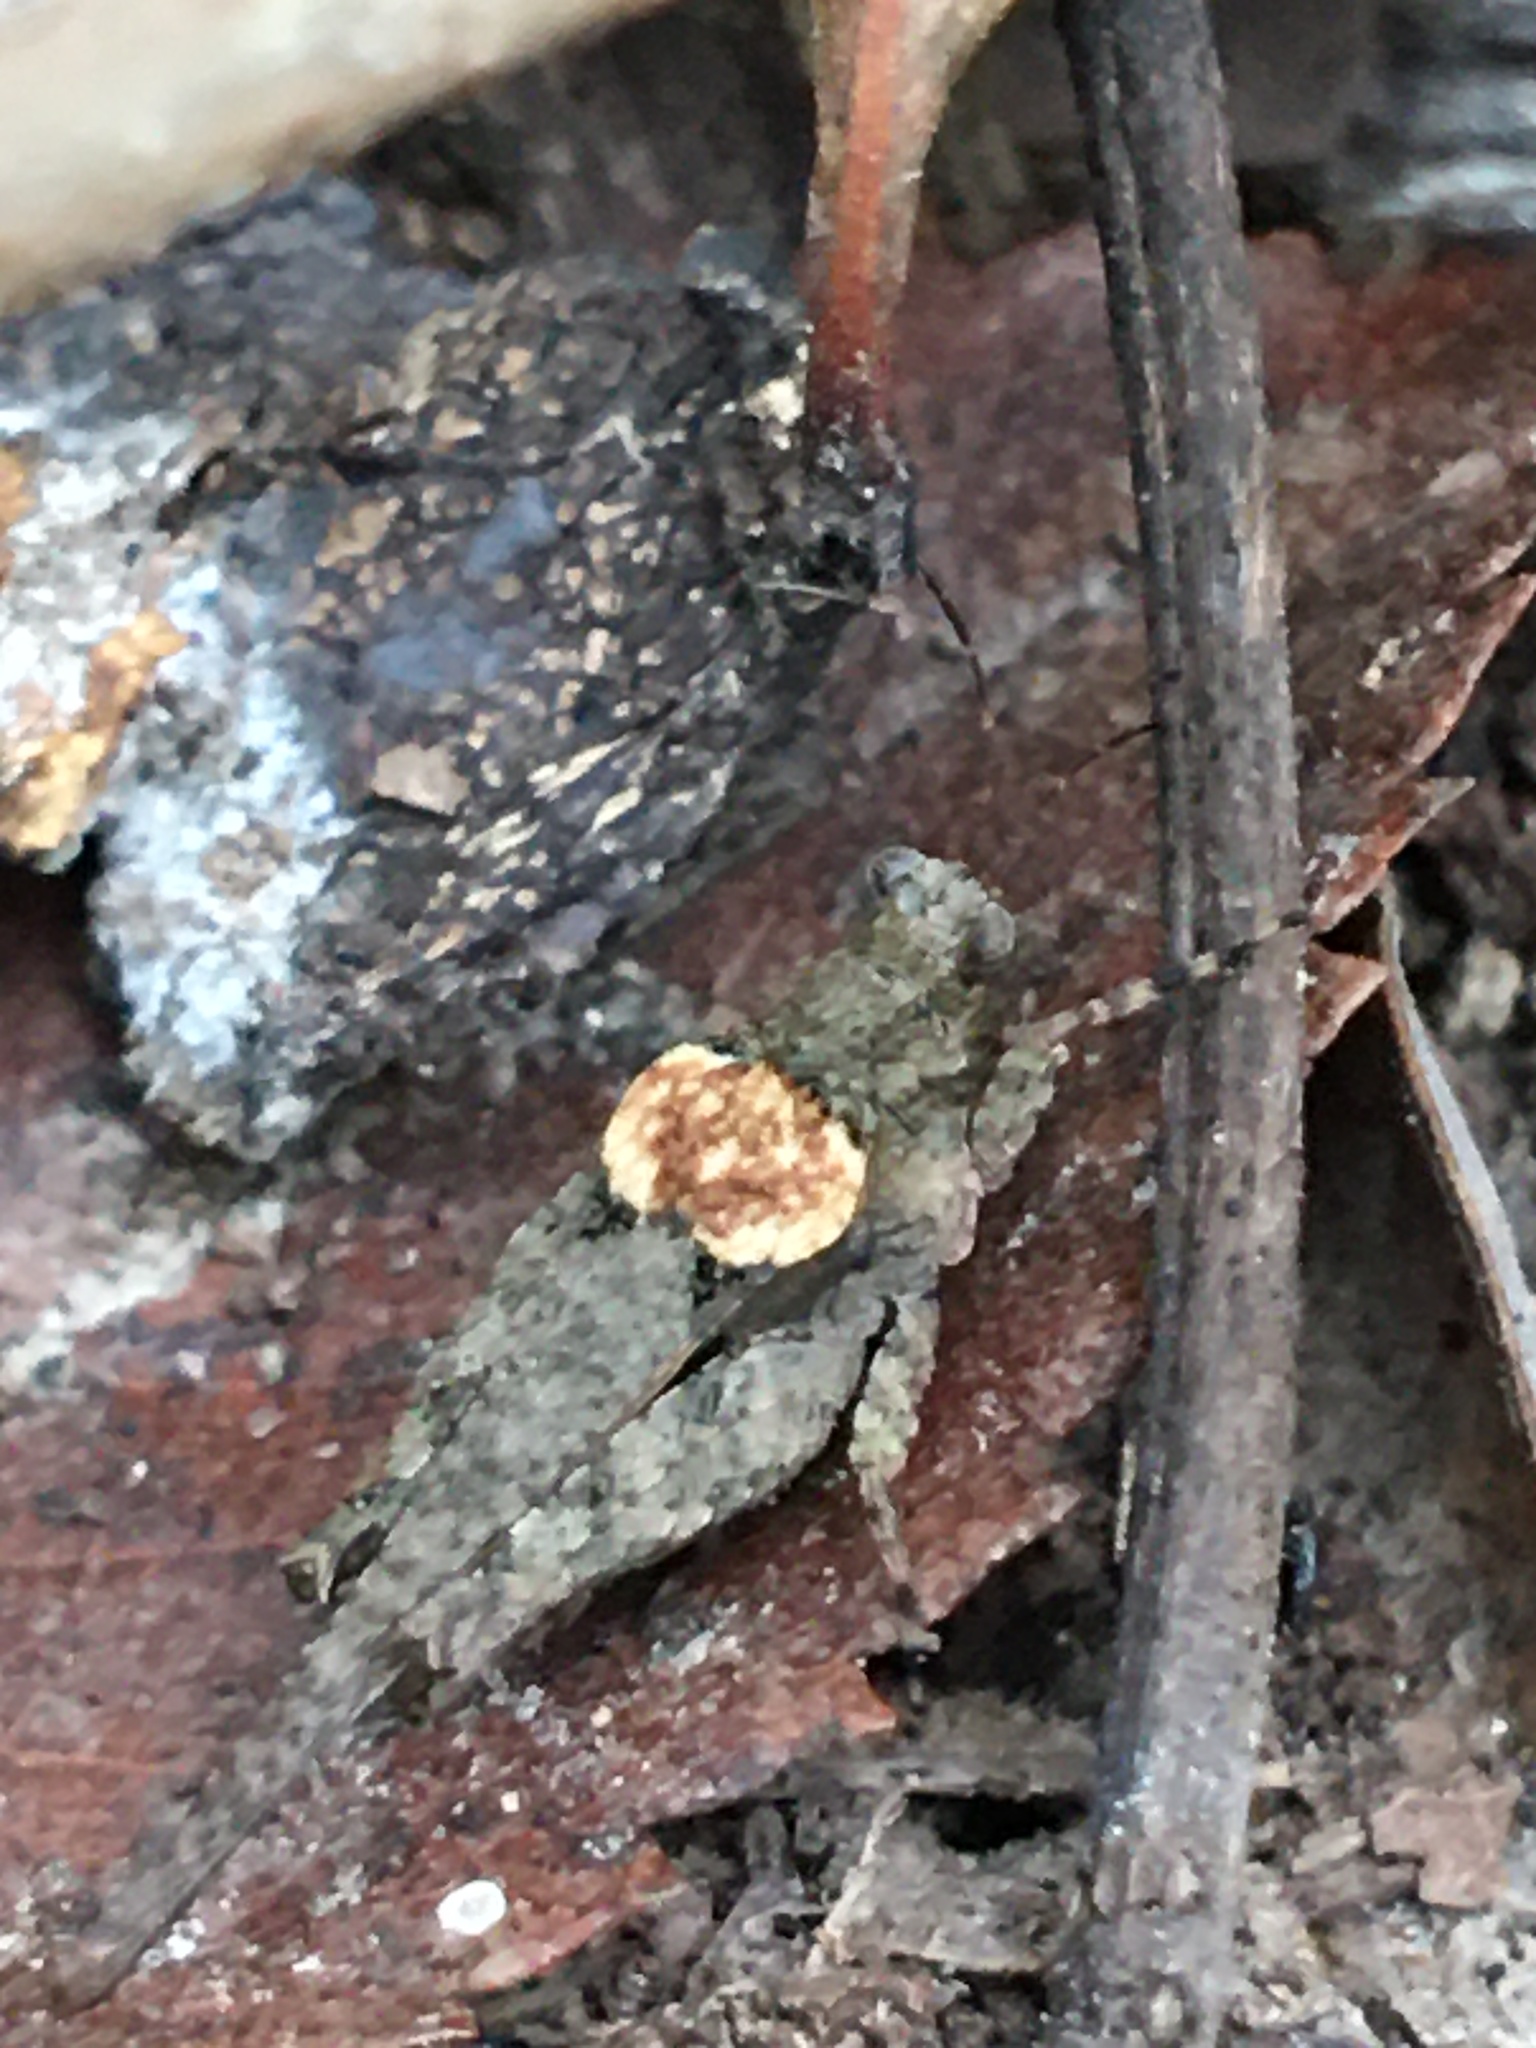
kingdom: Animalia
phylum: Arthropoda
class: Insecta
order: Orthoptera
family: Tetrigidae
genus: Tetrix
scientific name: Tetrix arenosa
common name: Ornate pygmy grasshopper
